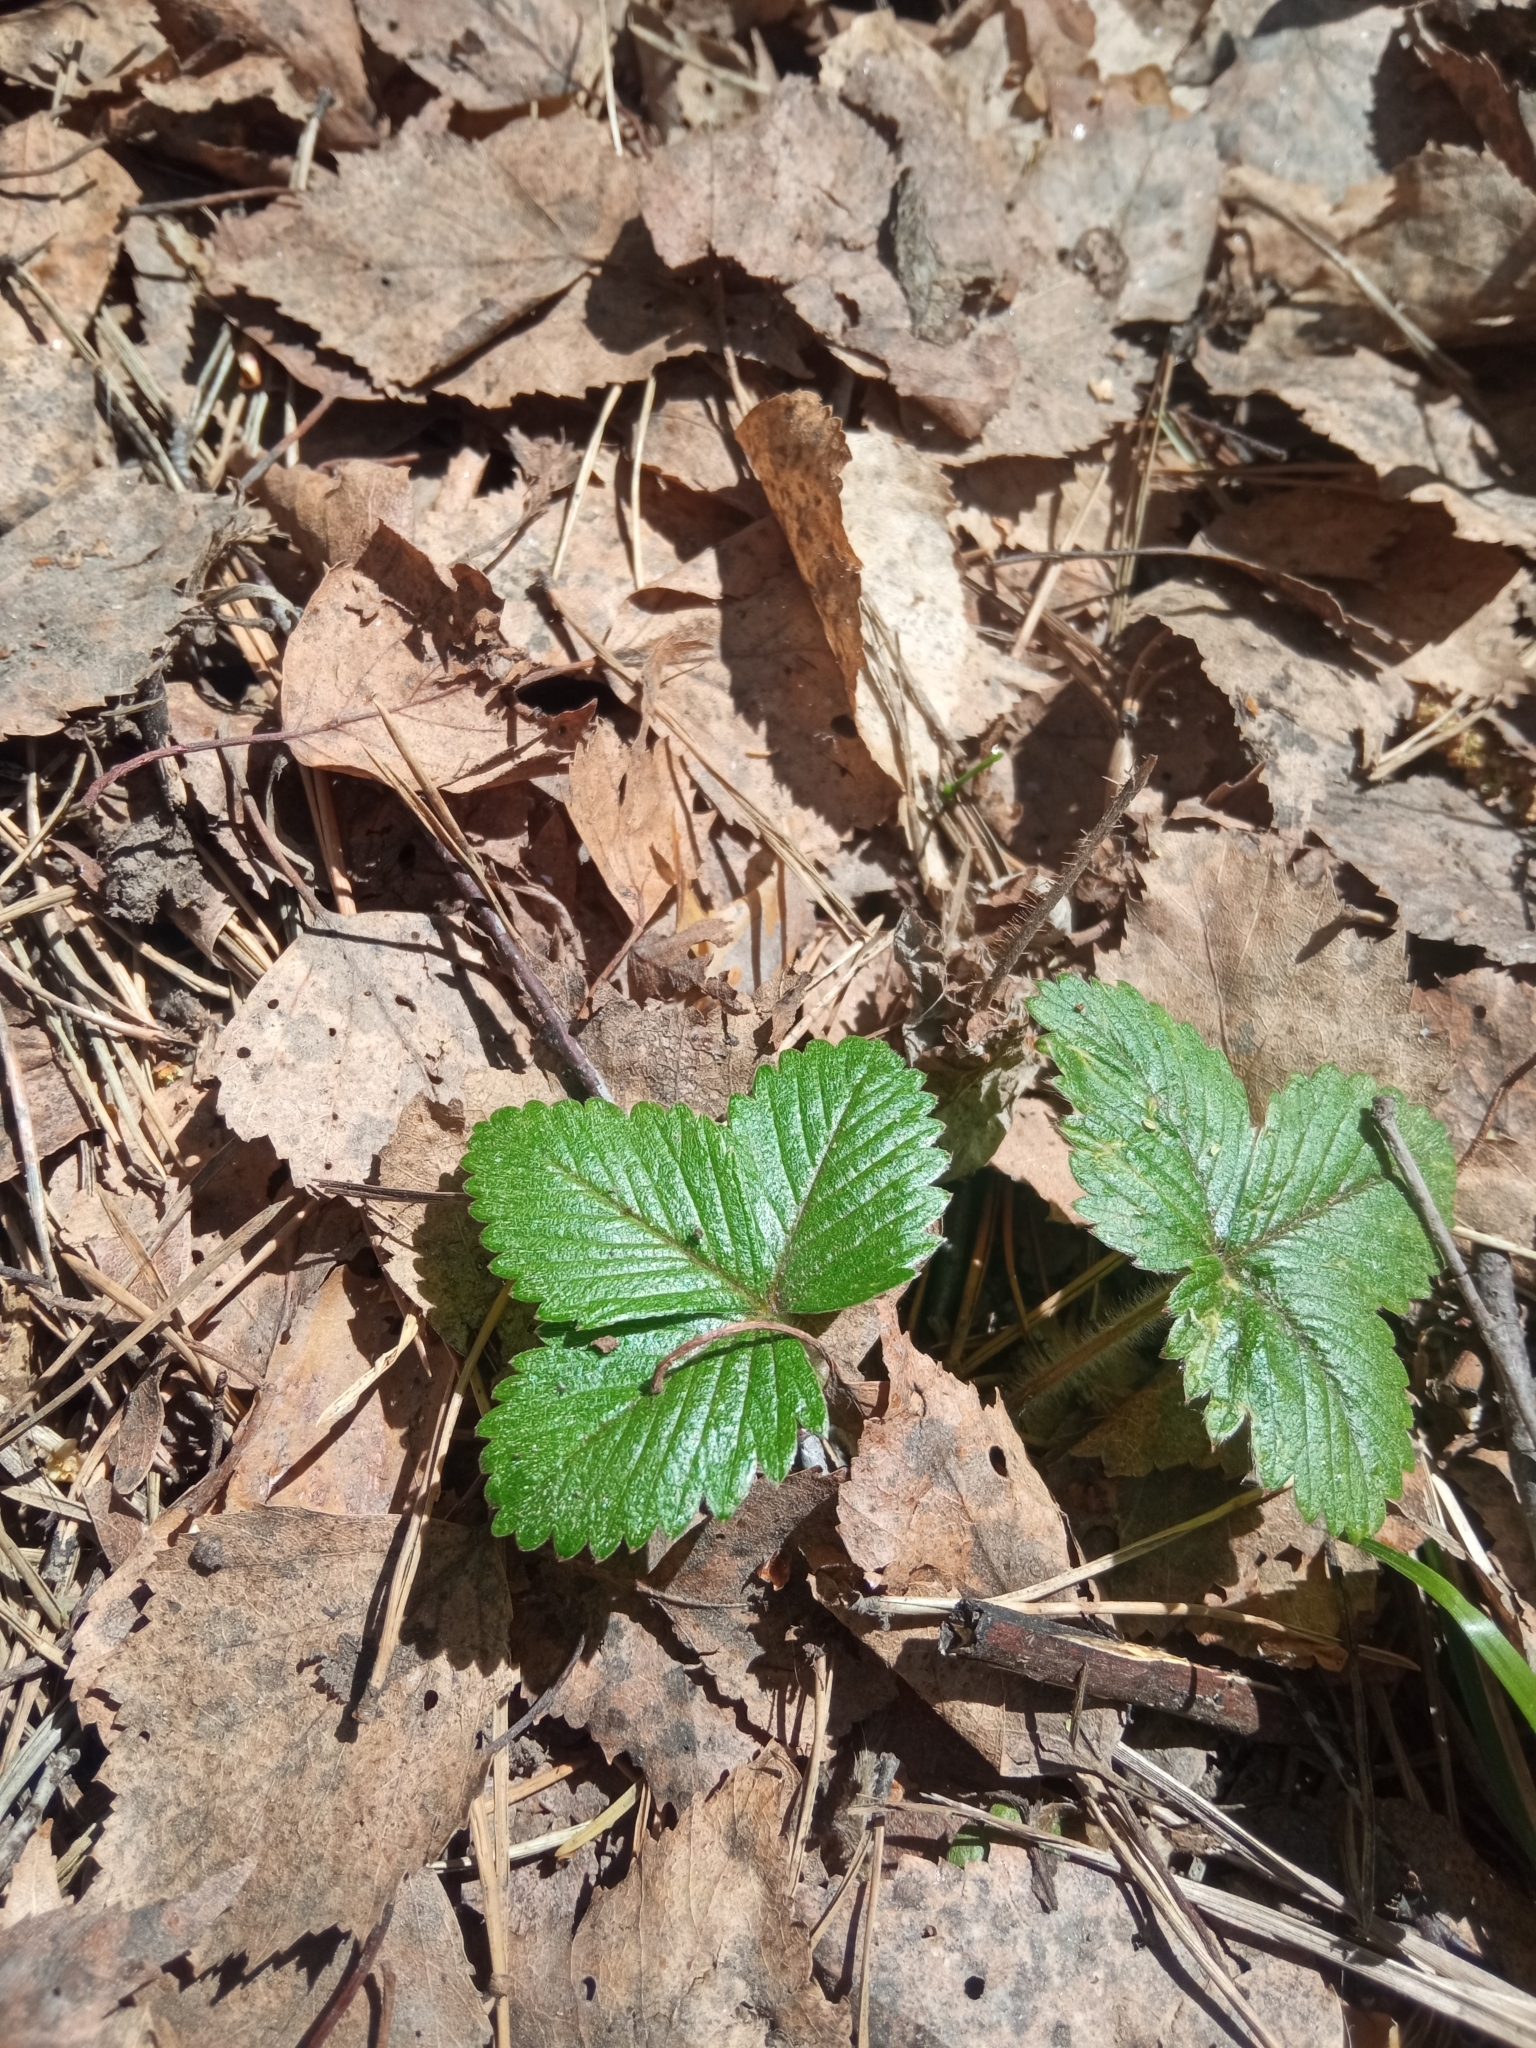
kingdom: Plantae
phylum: Tracheophyta
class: Magnoliopsida
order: Rosales
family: Rosaceae
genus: Fragaria
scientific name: Fragaria vesca
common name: Wild strawberry
